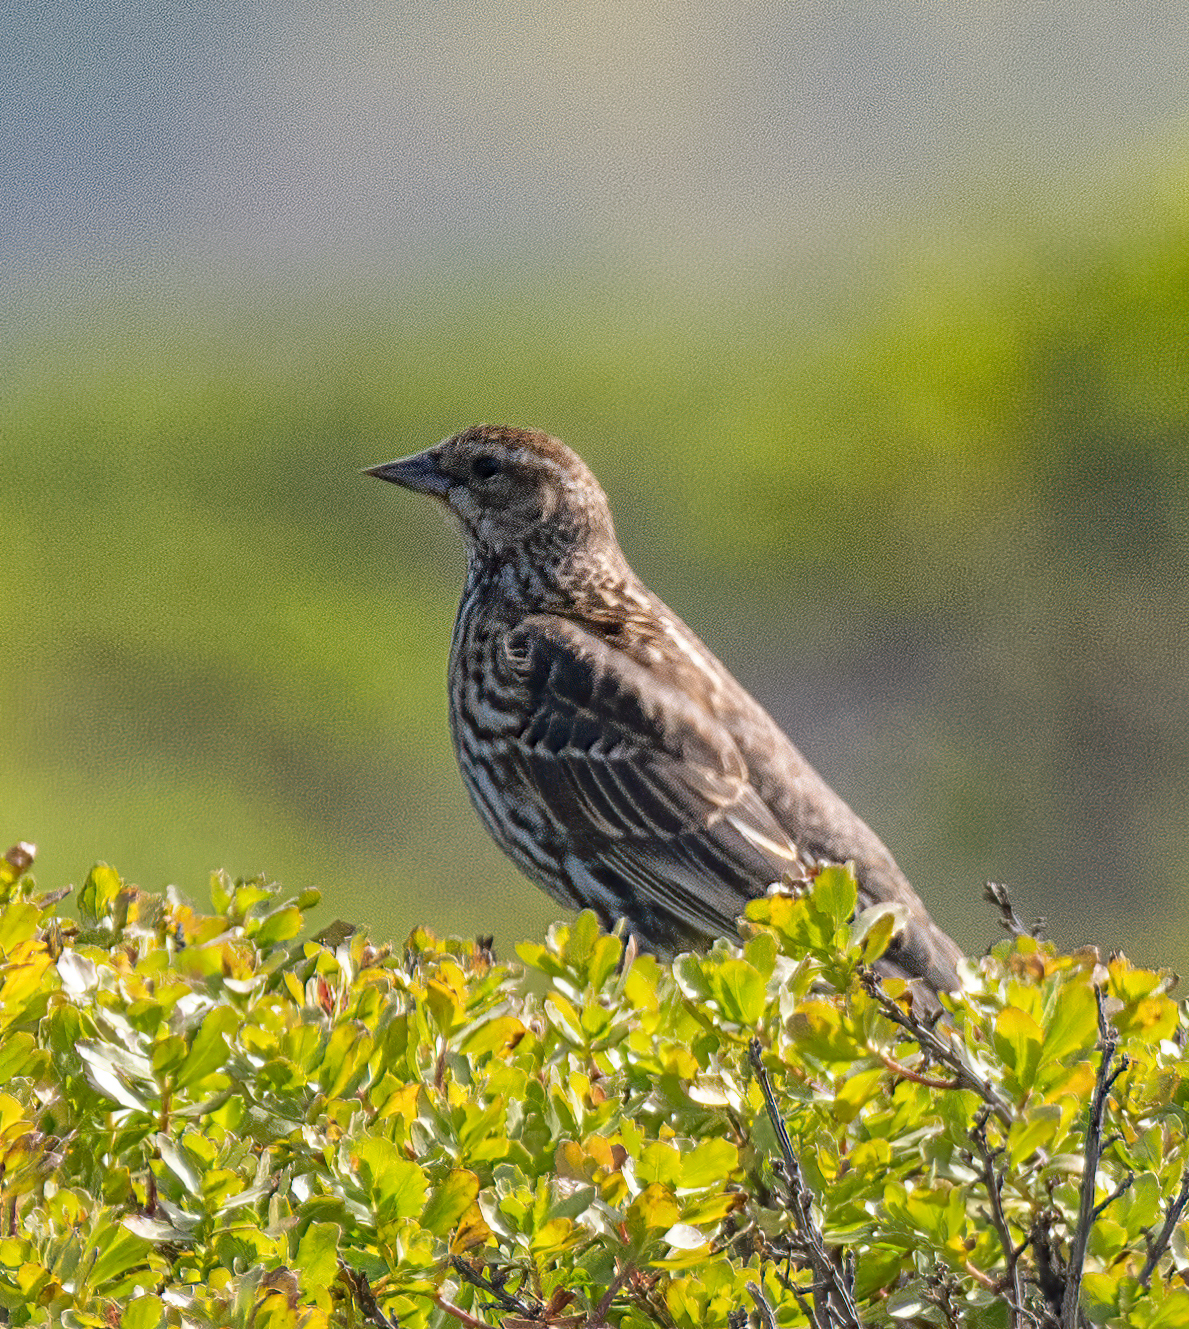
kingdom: Animalia
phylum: Chordata
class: Aves
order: Passeriformes
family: Icteridae
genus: Agelaius
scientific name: Agelaius phoeniceus
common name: Red-winged blackbird
